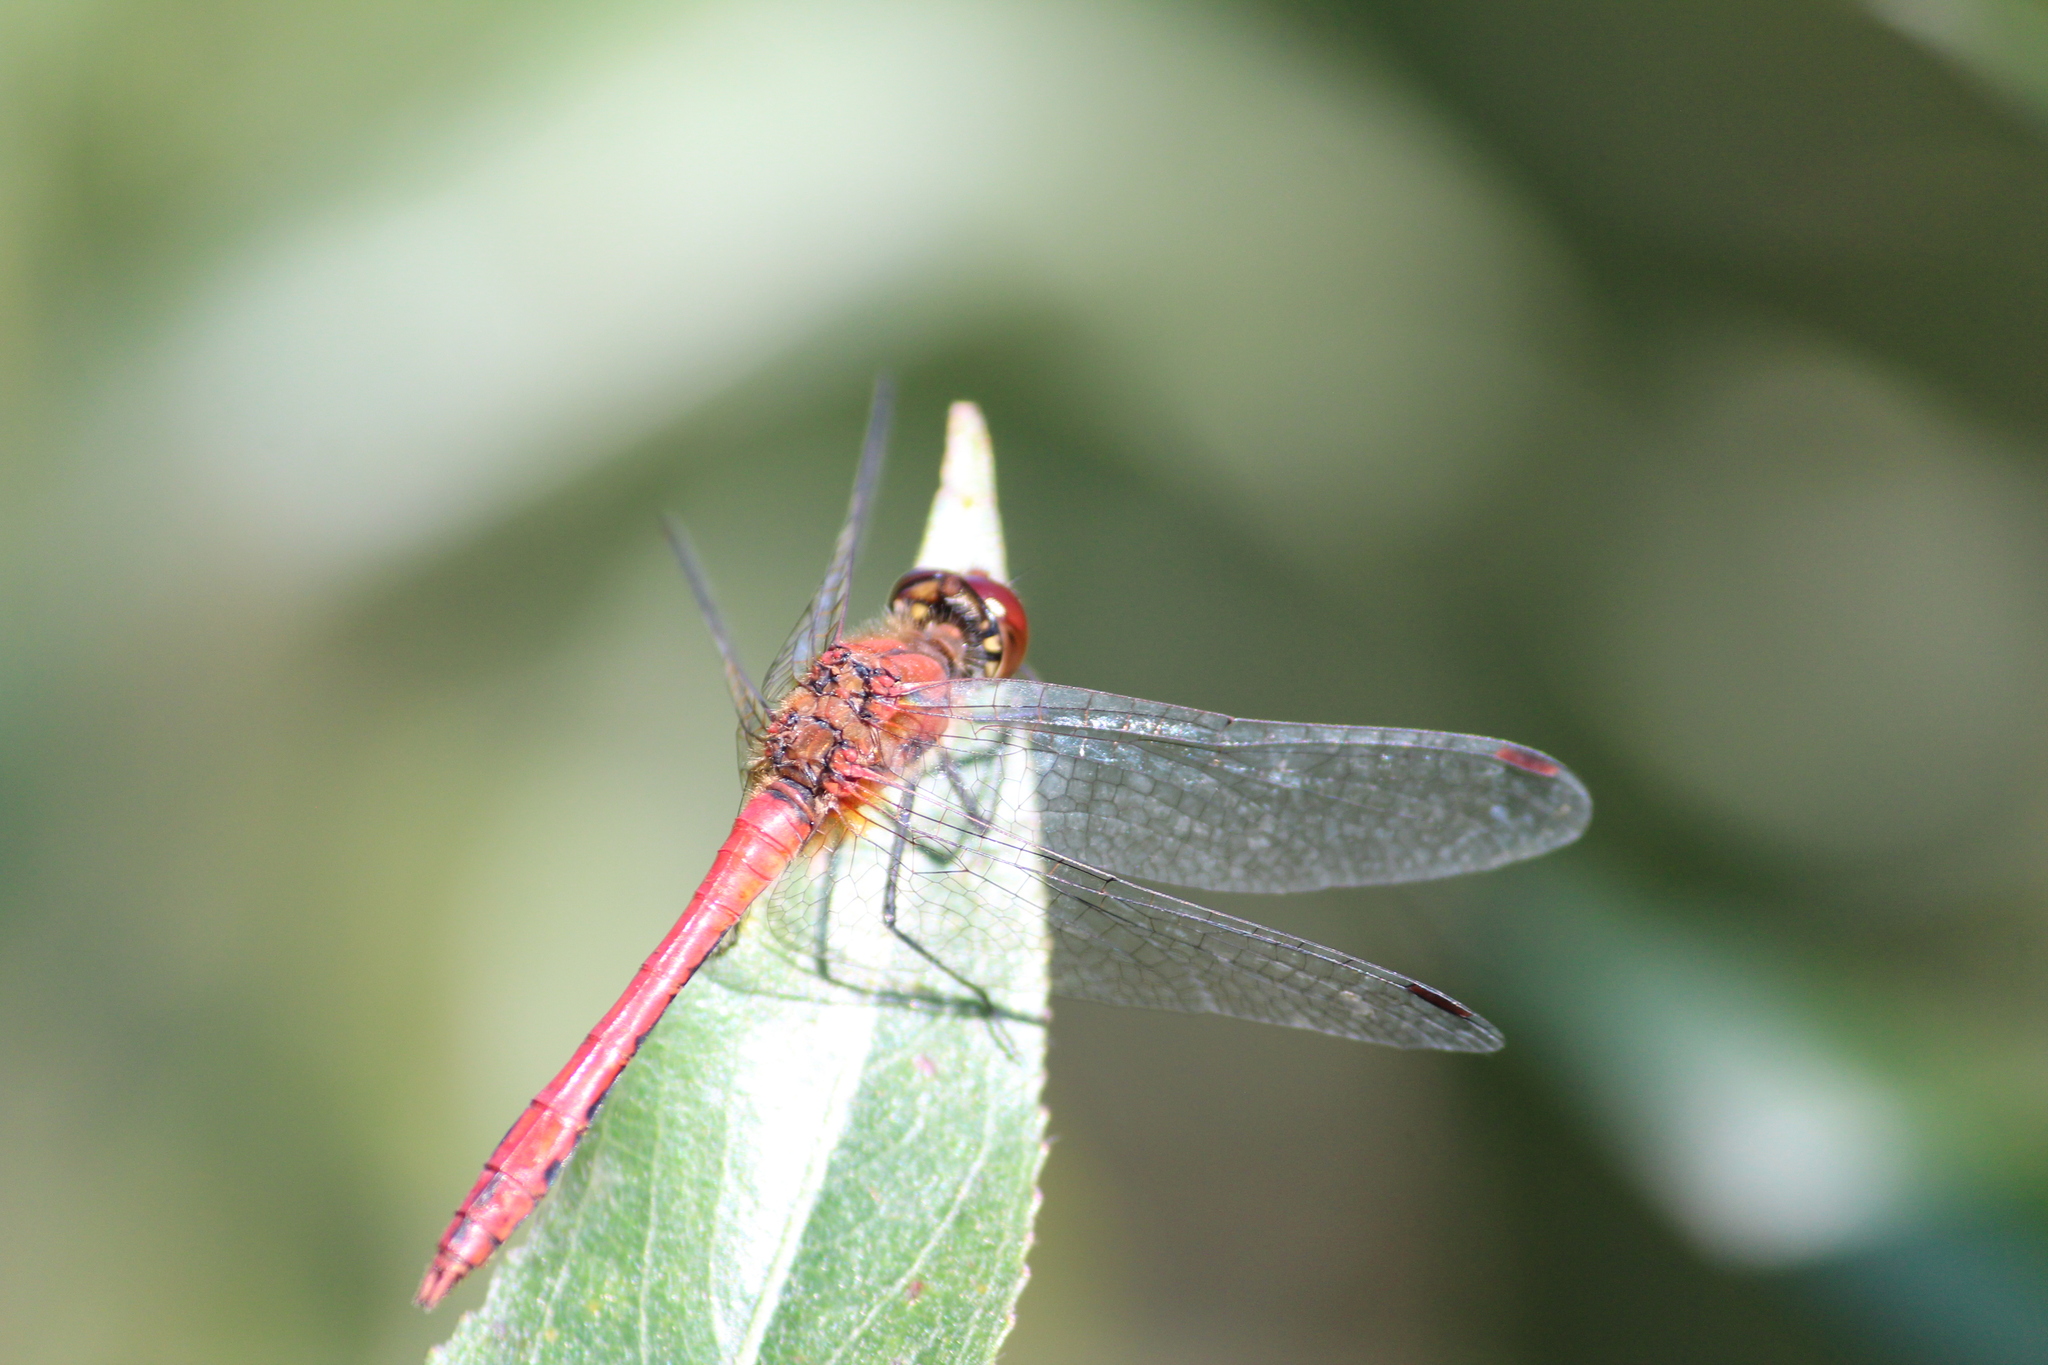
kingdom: Animalia
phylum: Arthropoda
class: Insecta
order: Odonata
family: Libellulidae
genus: Sympetrum
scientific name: Sympetrum sanguineum
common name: Ruddy darter
